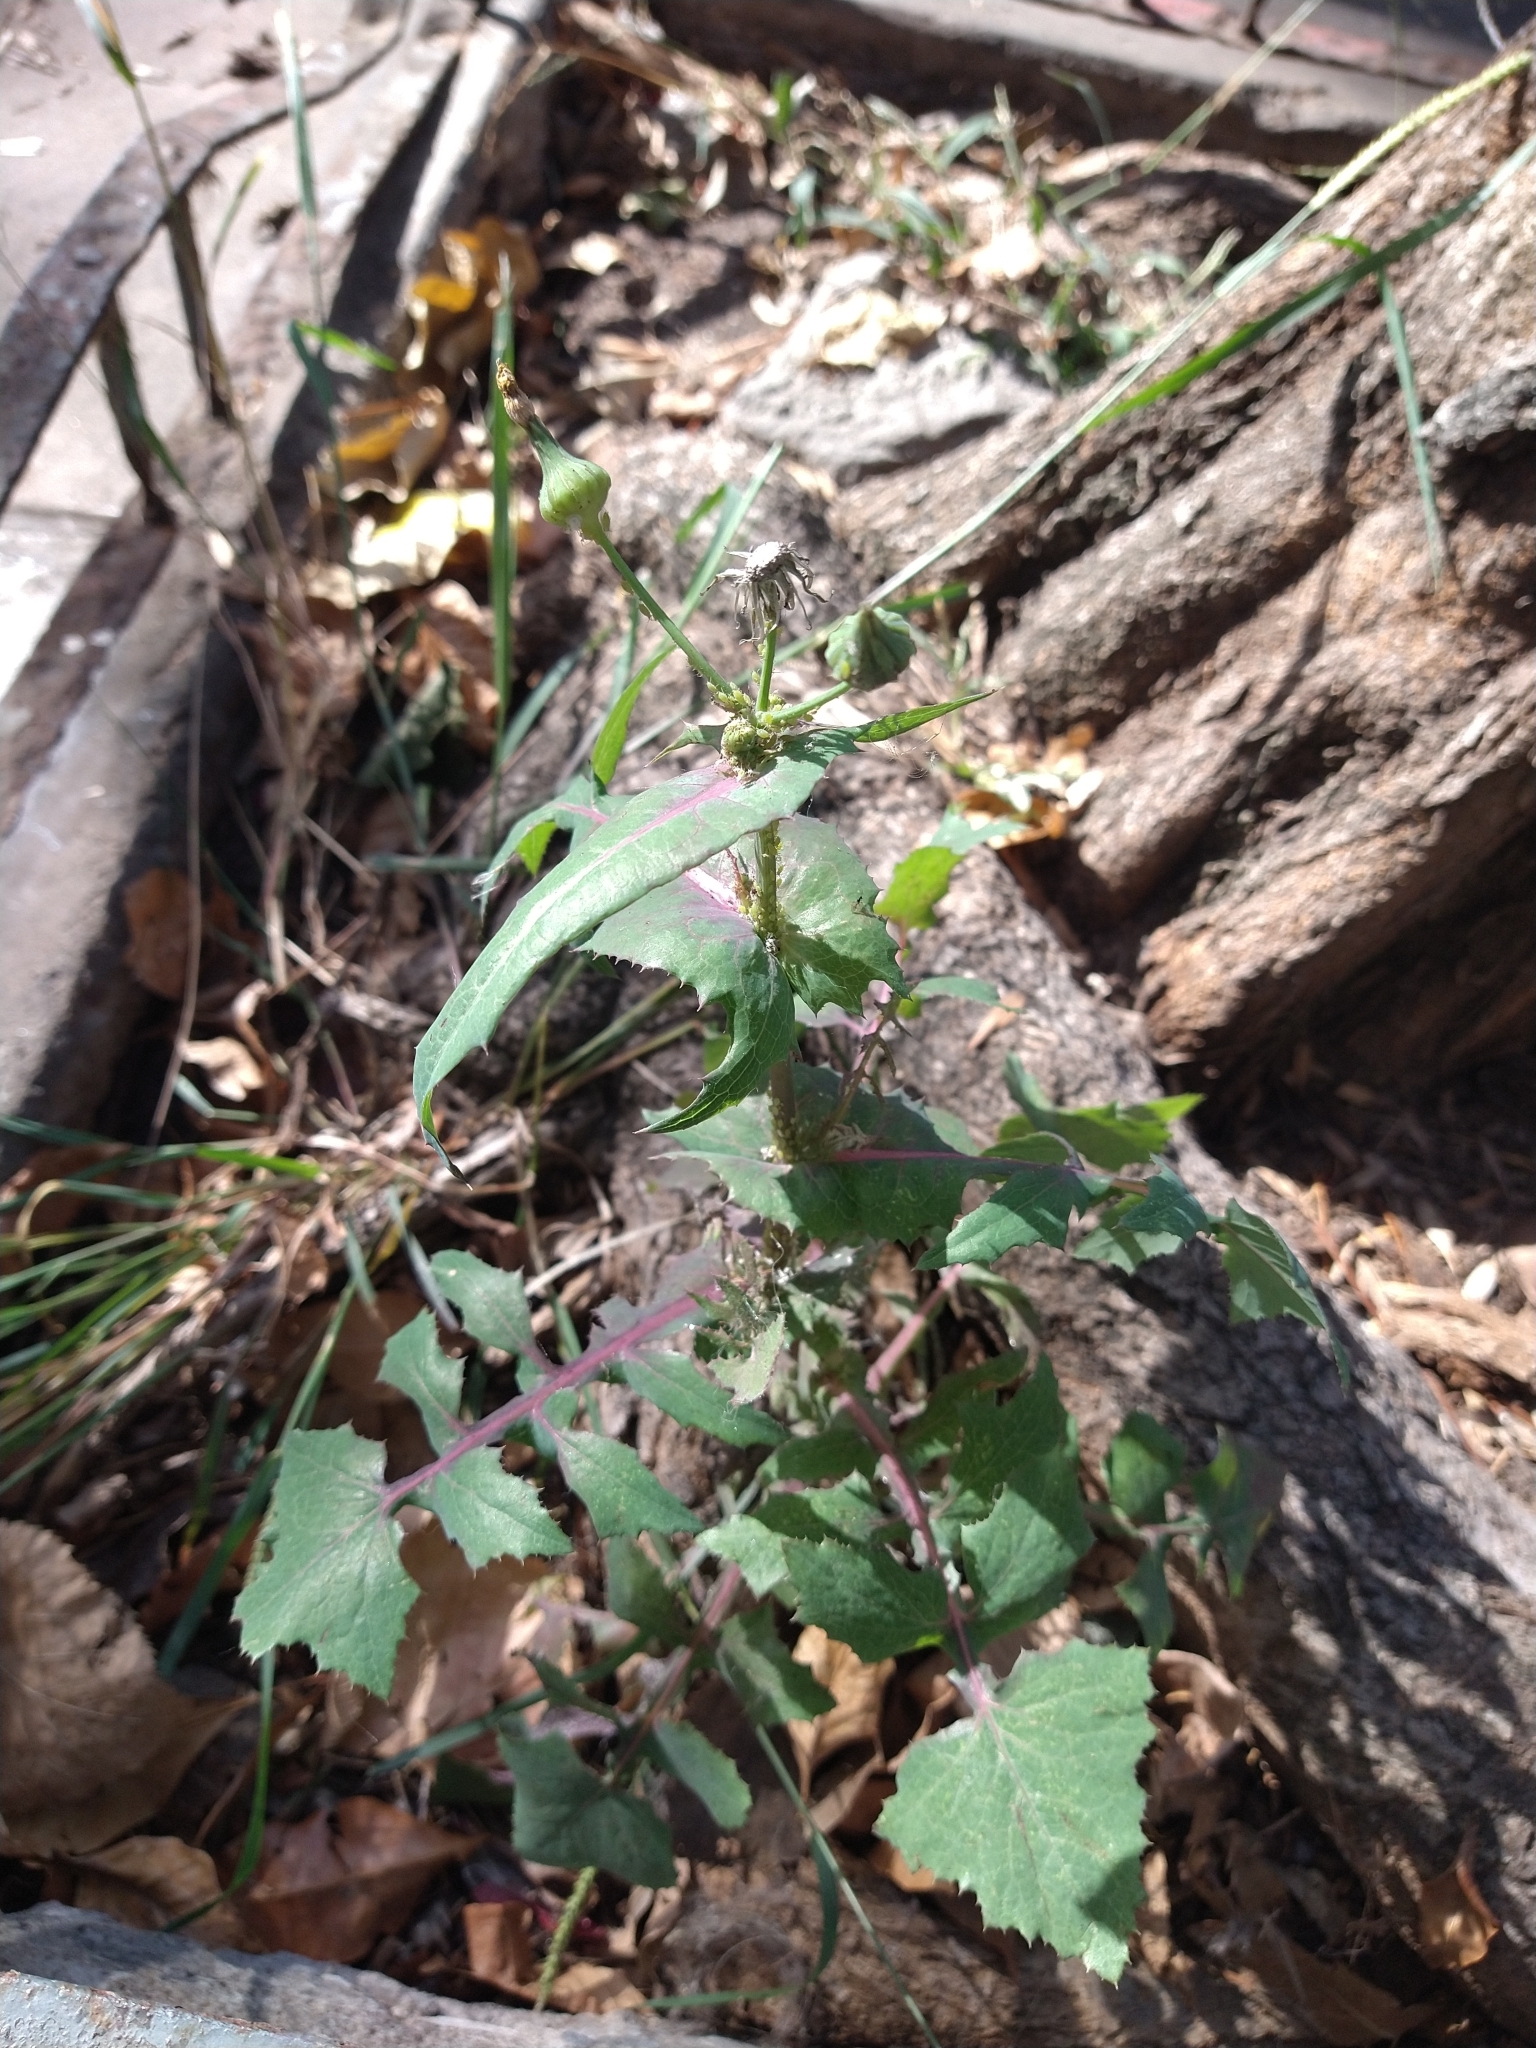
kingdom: Plantae
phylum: Tracheophyta
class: Magnoliopsida
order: Asterales
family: Asteraceae
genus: Sonchus
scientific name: Sonchus oleraceus
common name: Common sowthistle
